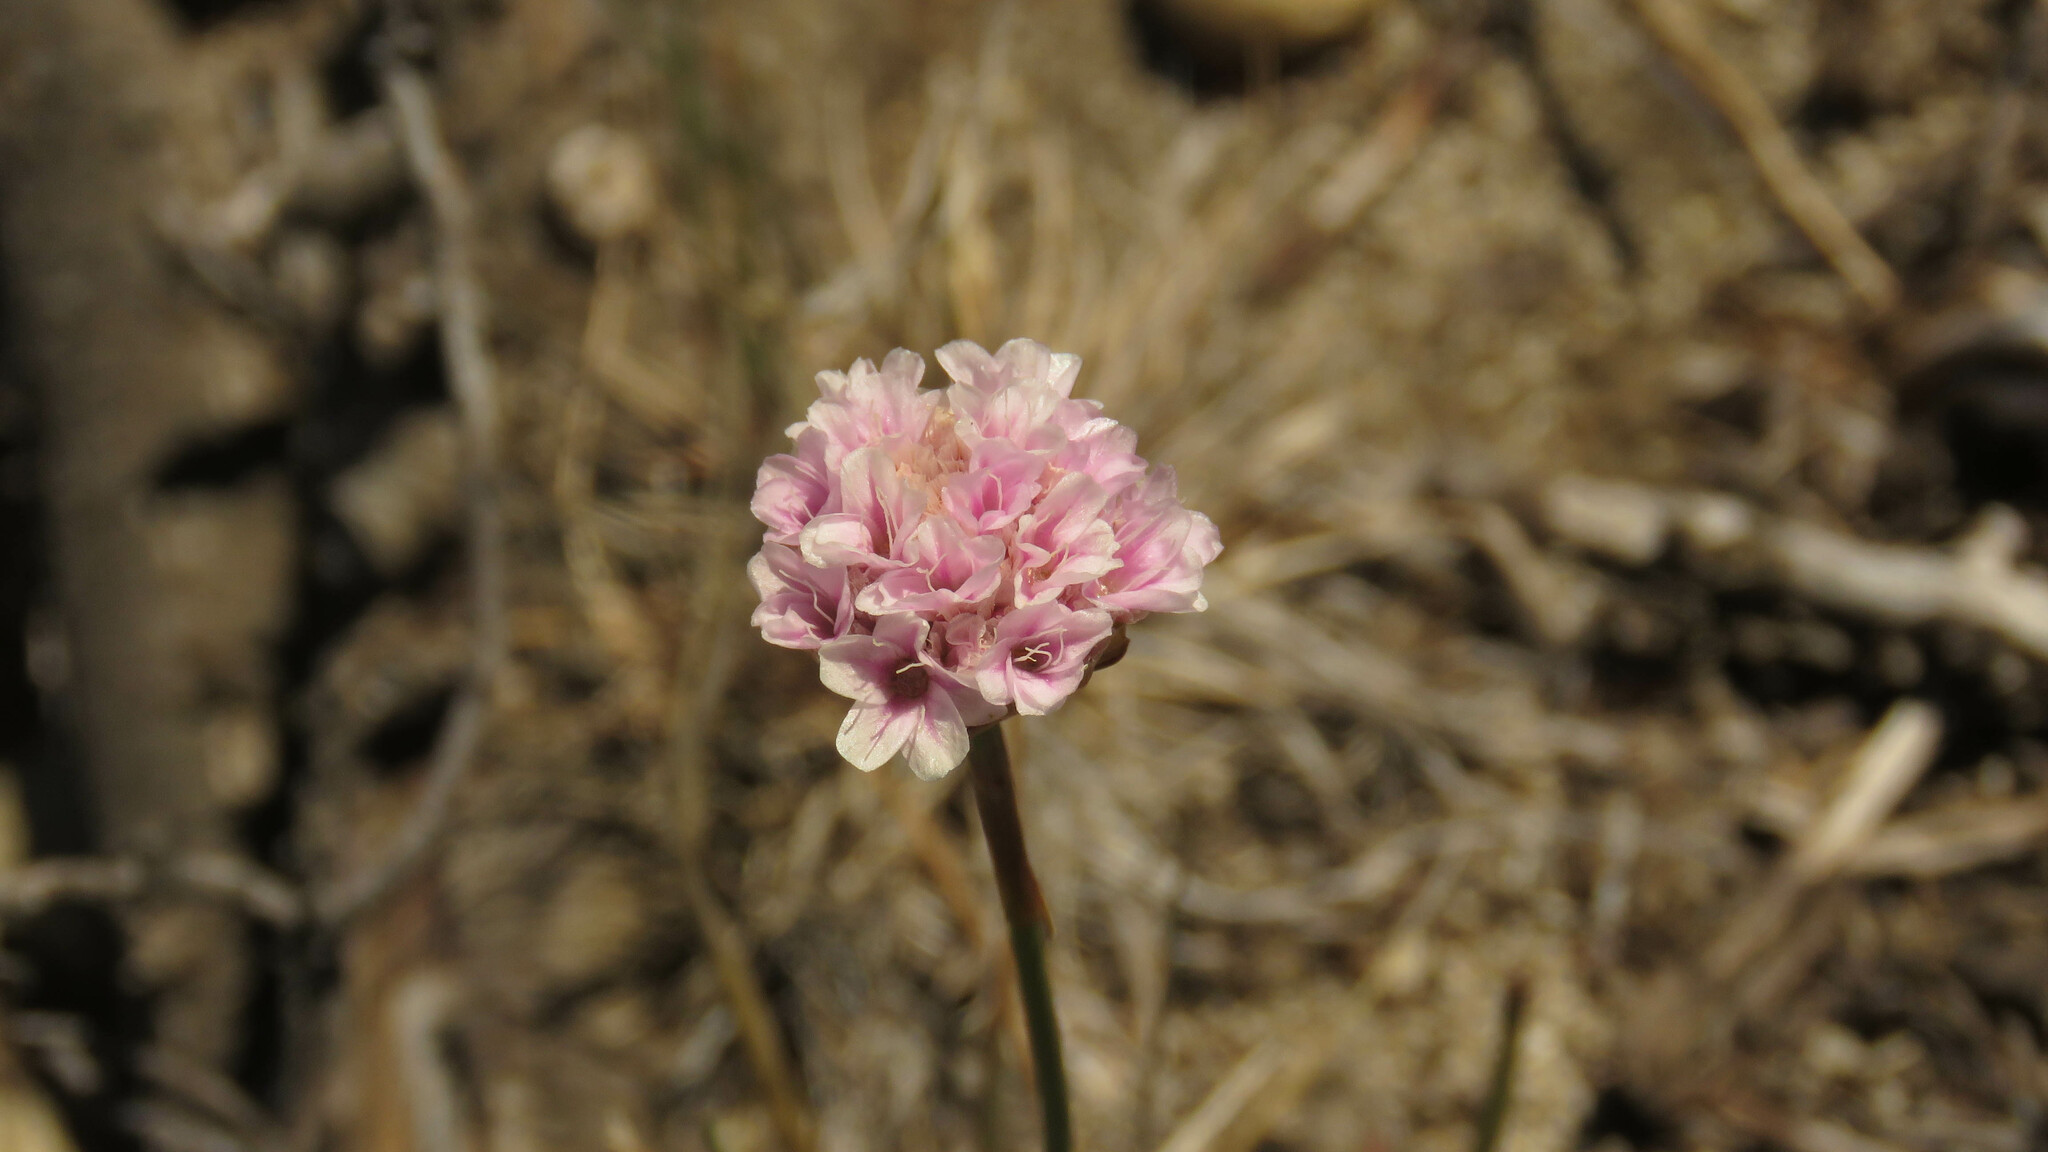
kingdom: Plantae
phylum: Tracheophyta
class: Magnoliopsida
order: Caryophyllales
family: Plumbaginaceae
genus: Armeria
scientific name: Armeria curvifolia
